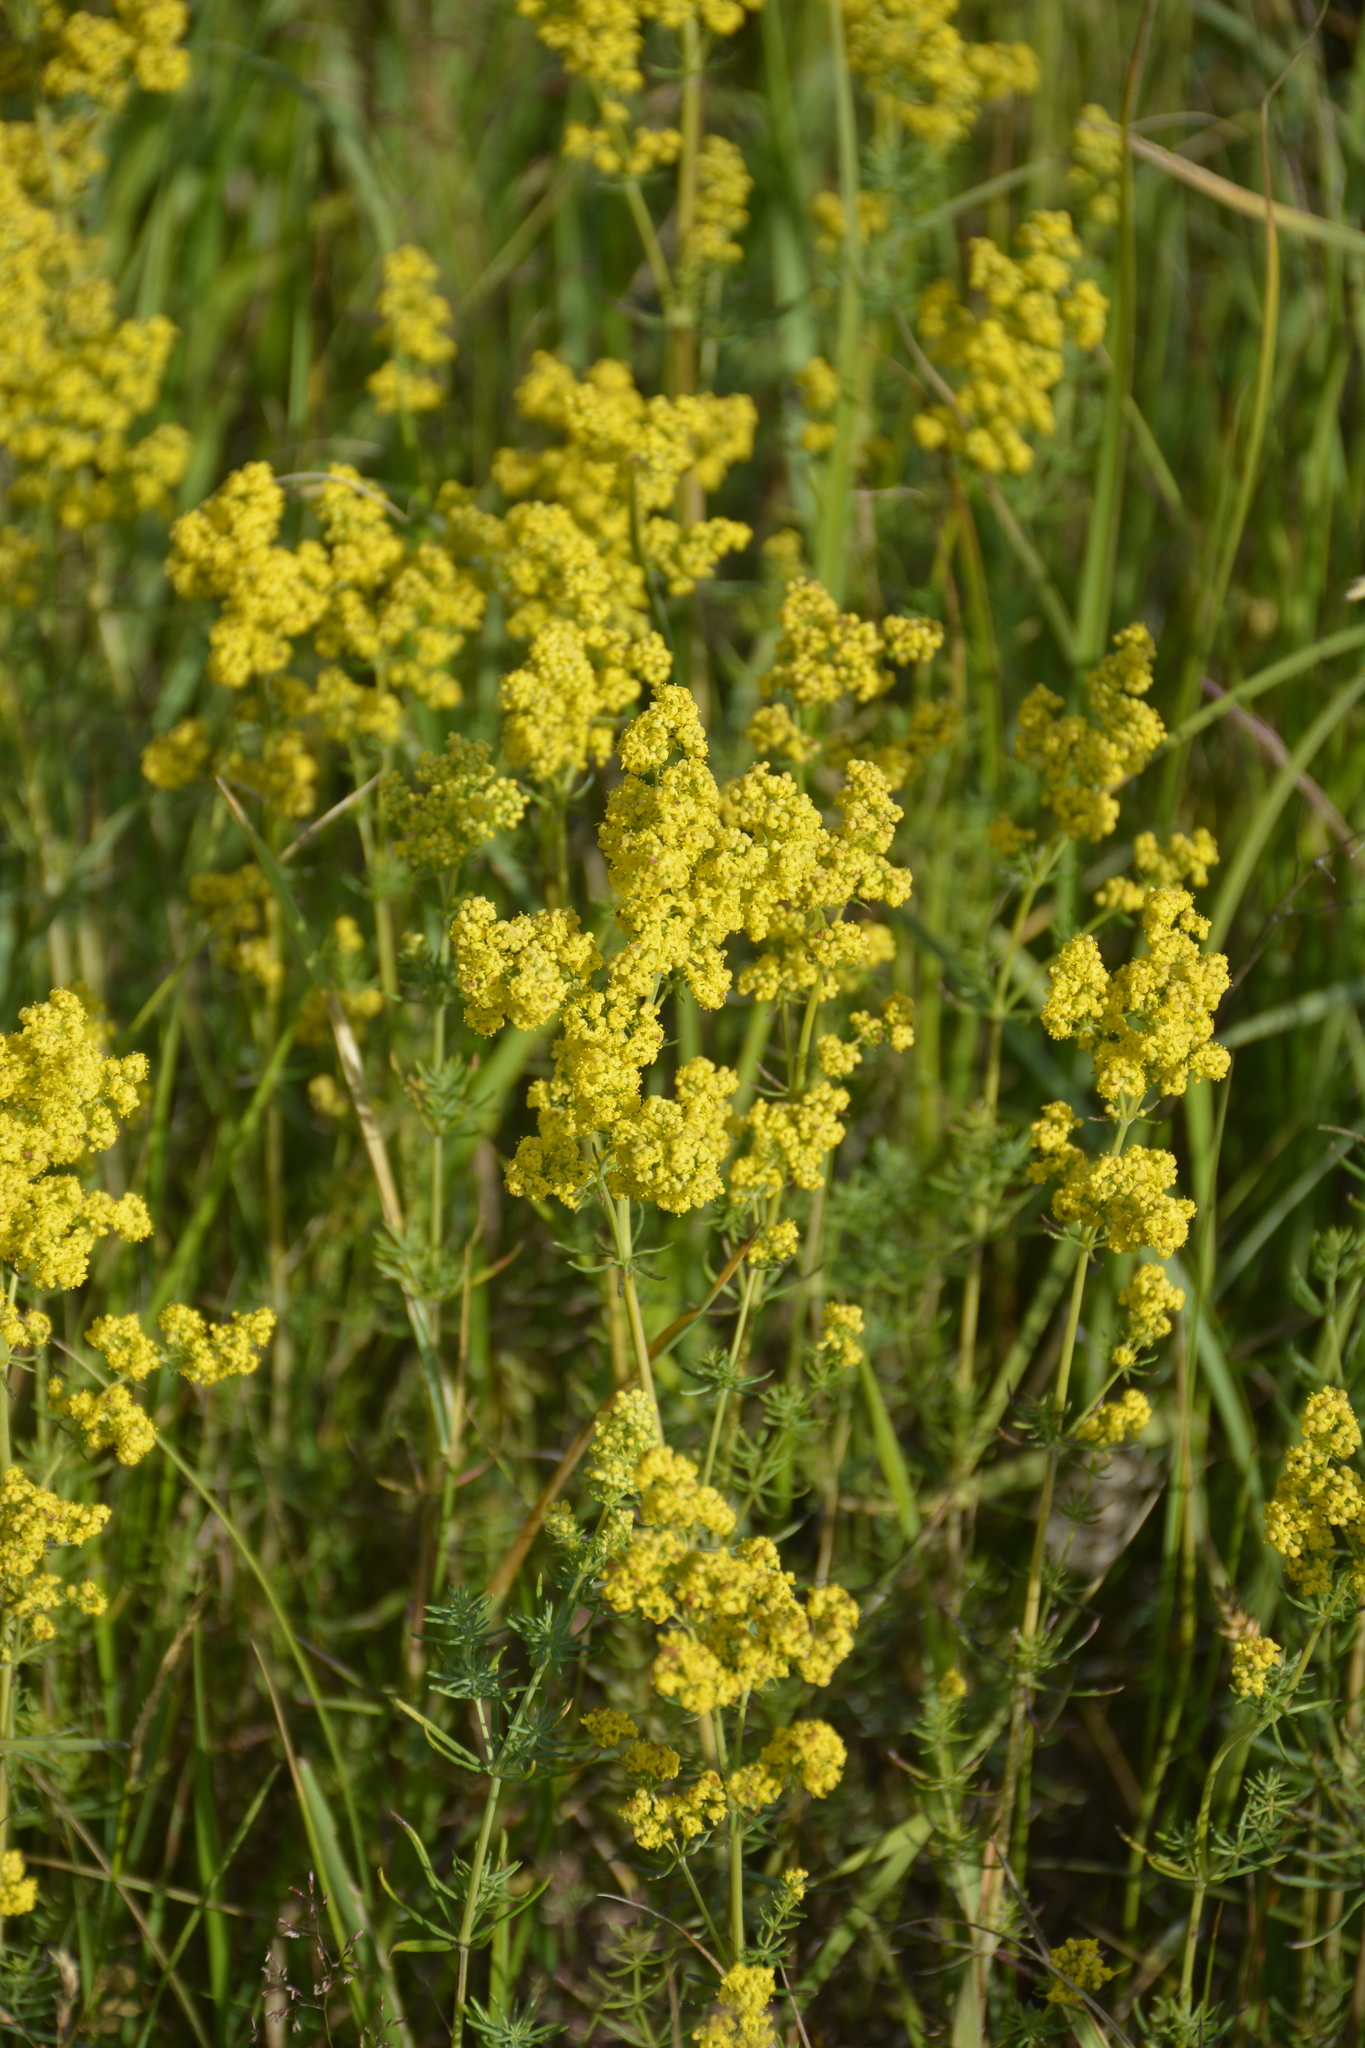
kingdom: Plantae
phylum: Tracheophyta
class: Magnoliopsida
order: Gentianales
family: Rubiaceae
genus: Galium
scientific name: Galium verum
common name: Lady's bedstraw
